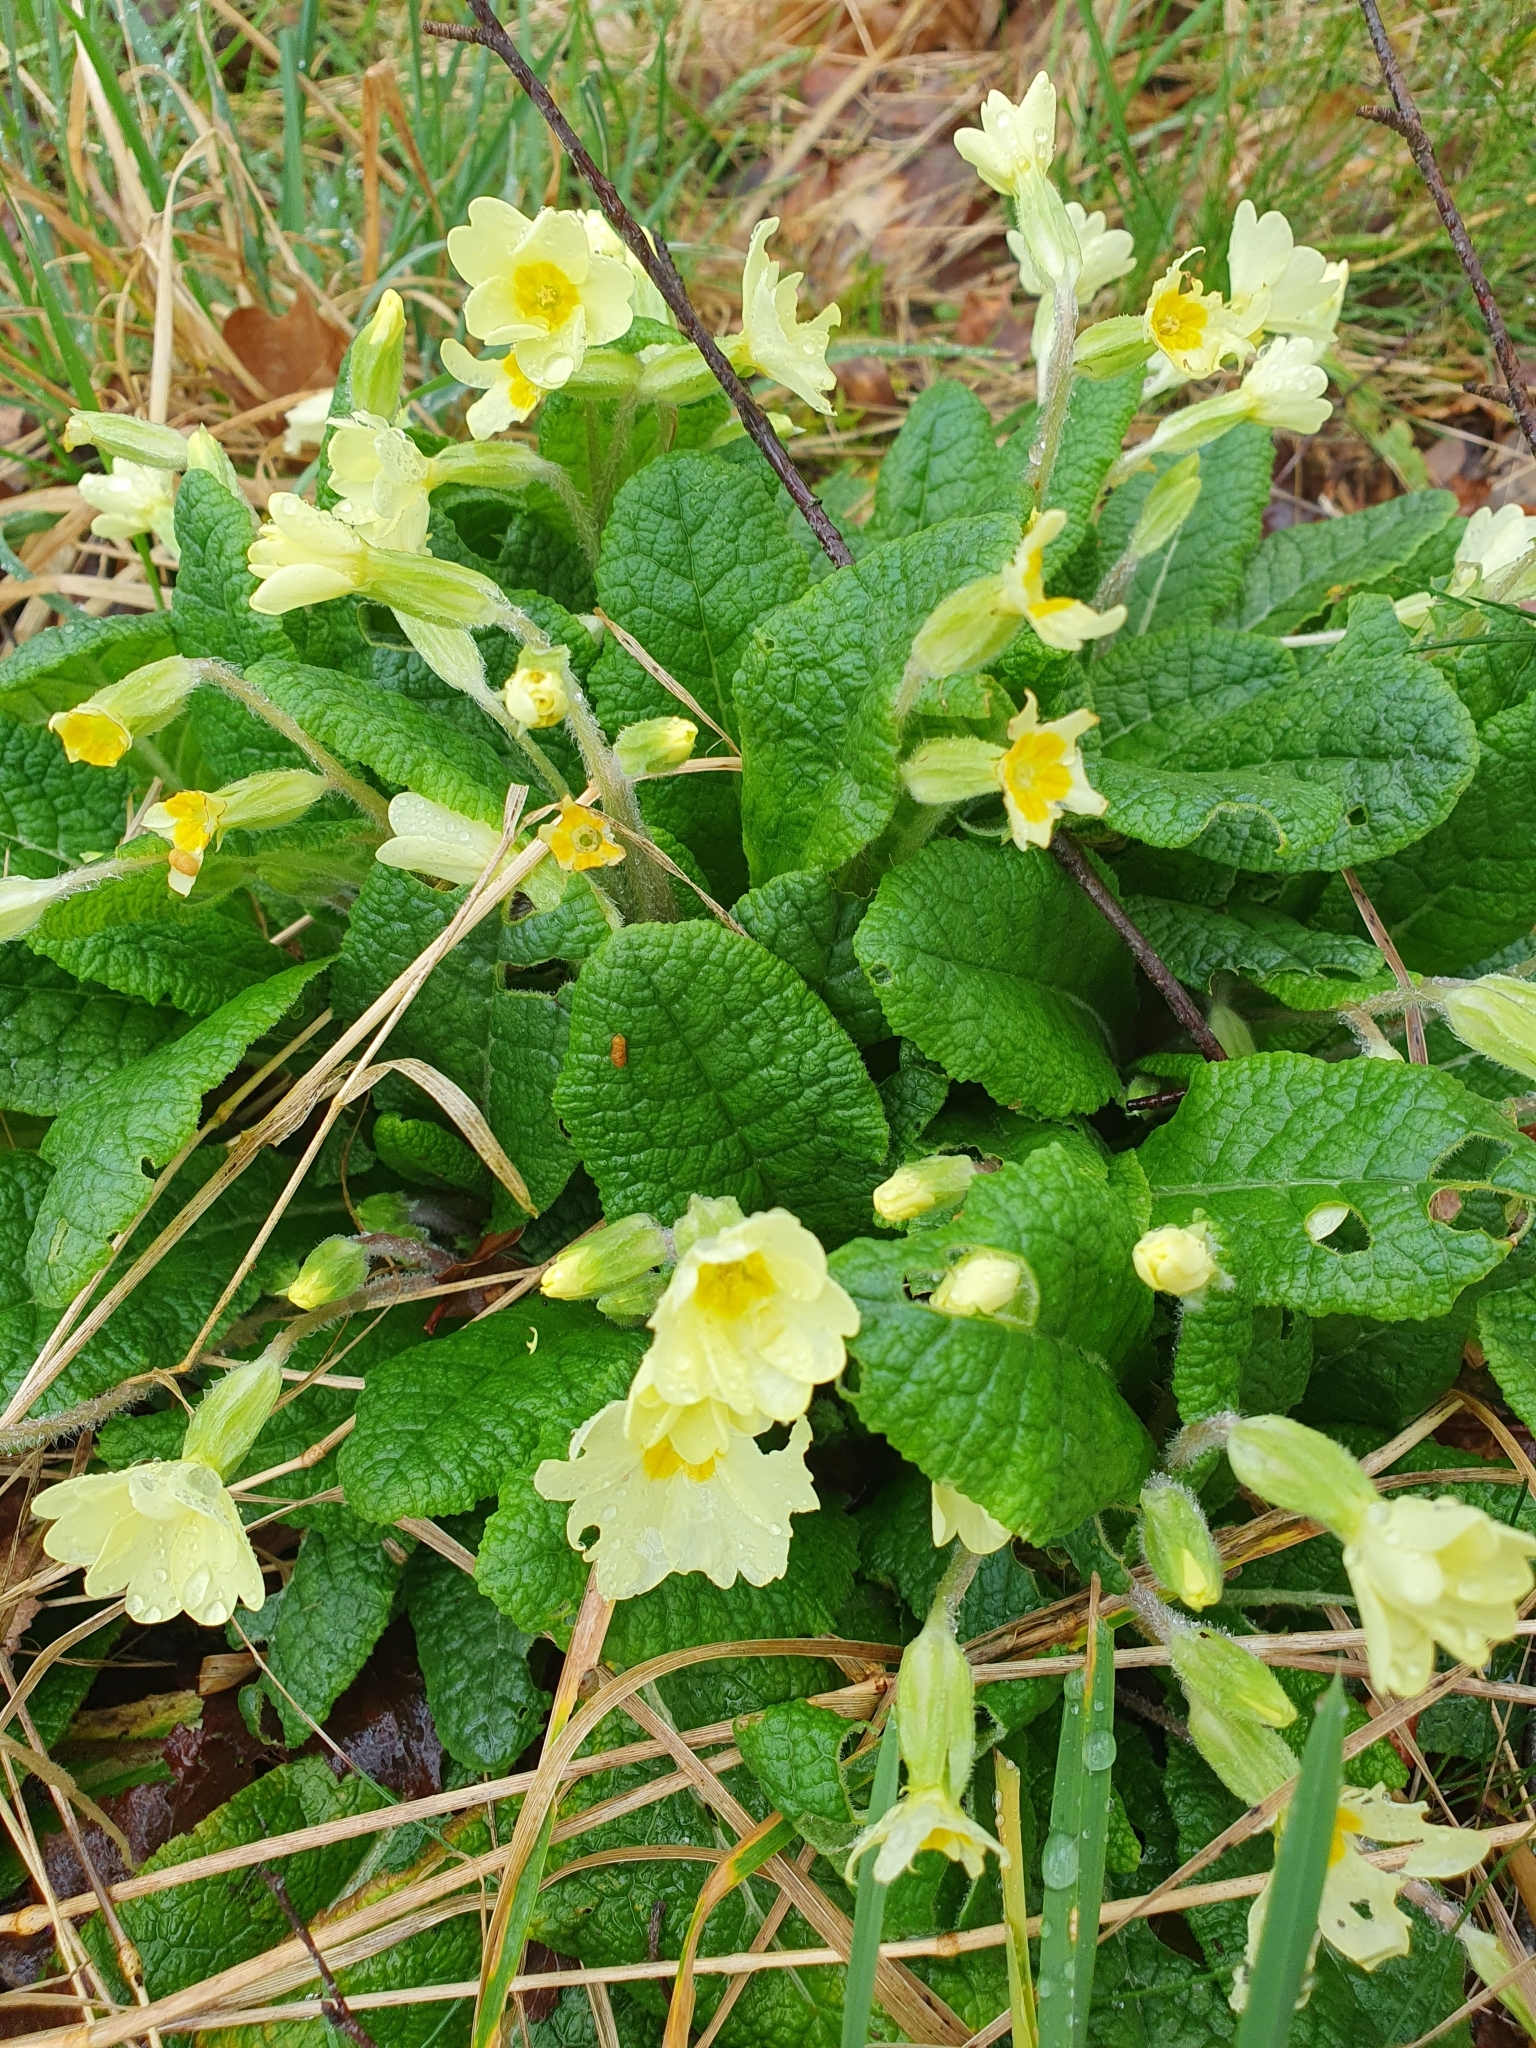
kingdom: Plantae
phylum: Tracheophyta
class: Magnoliopsida
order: Ericales
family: Primulaceae
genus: Primula
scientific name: Primula vulgaris
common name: Primrose
